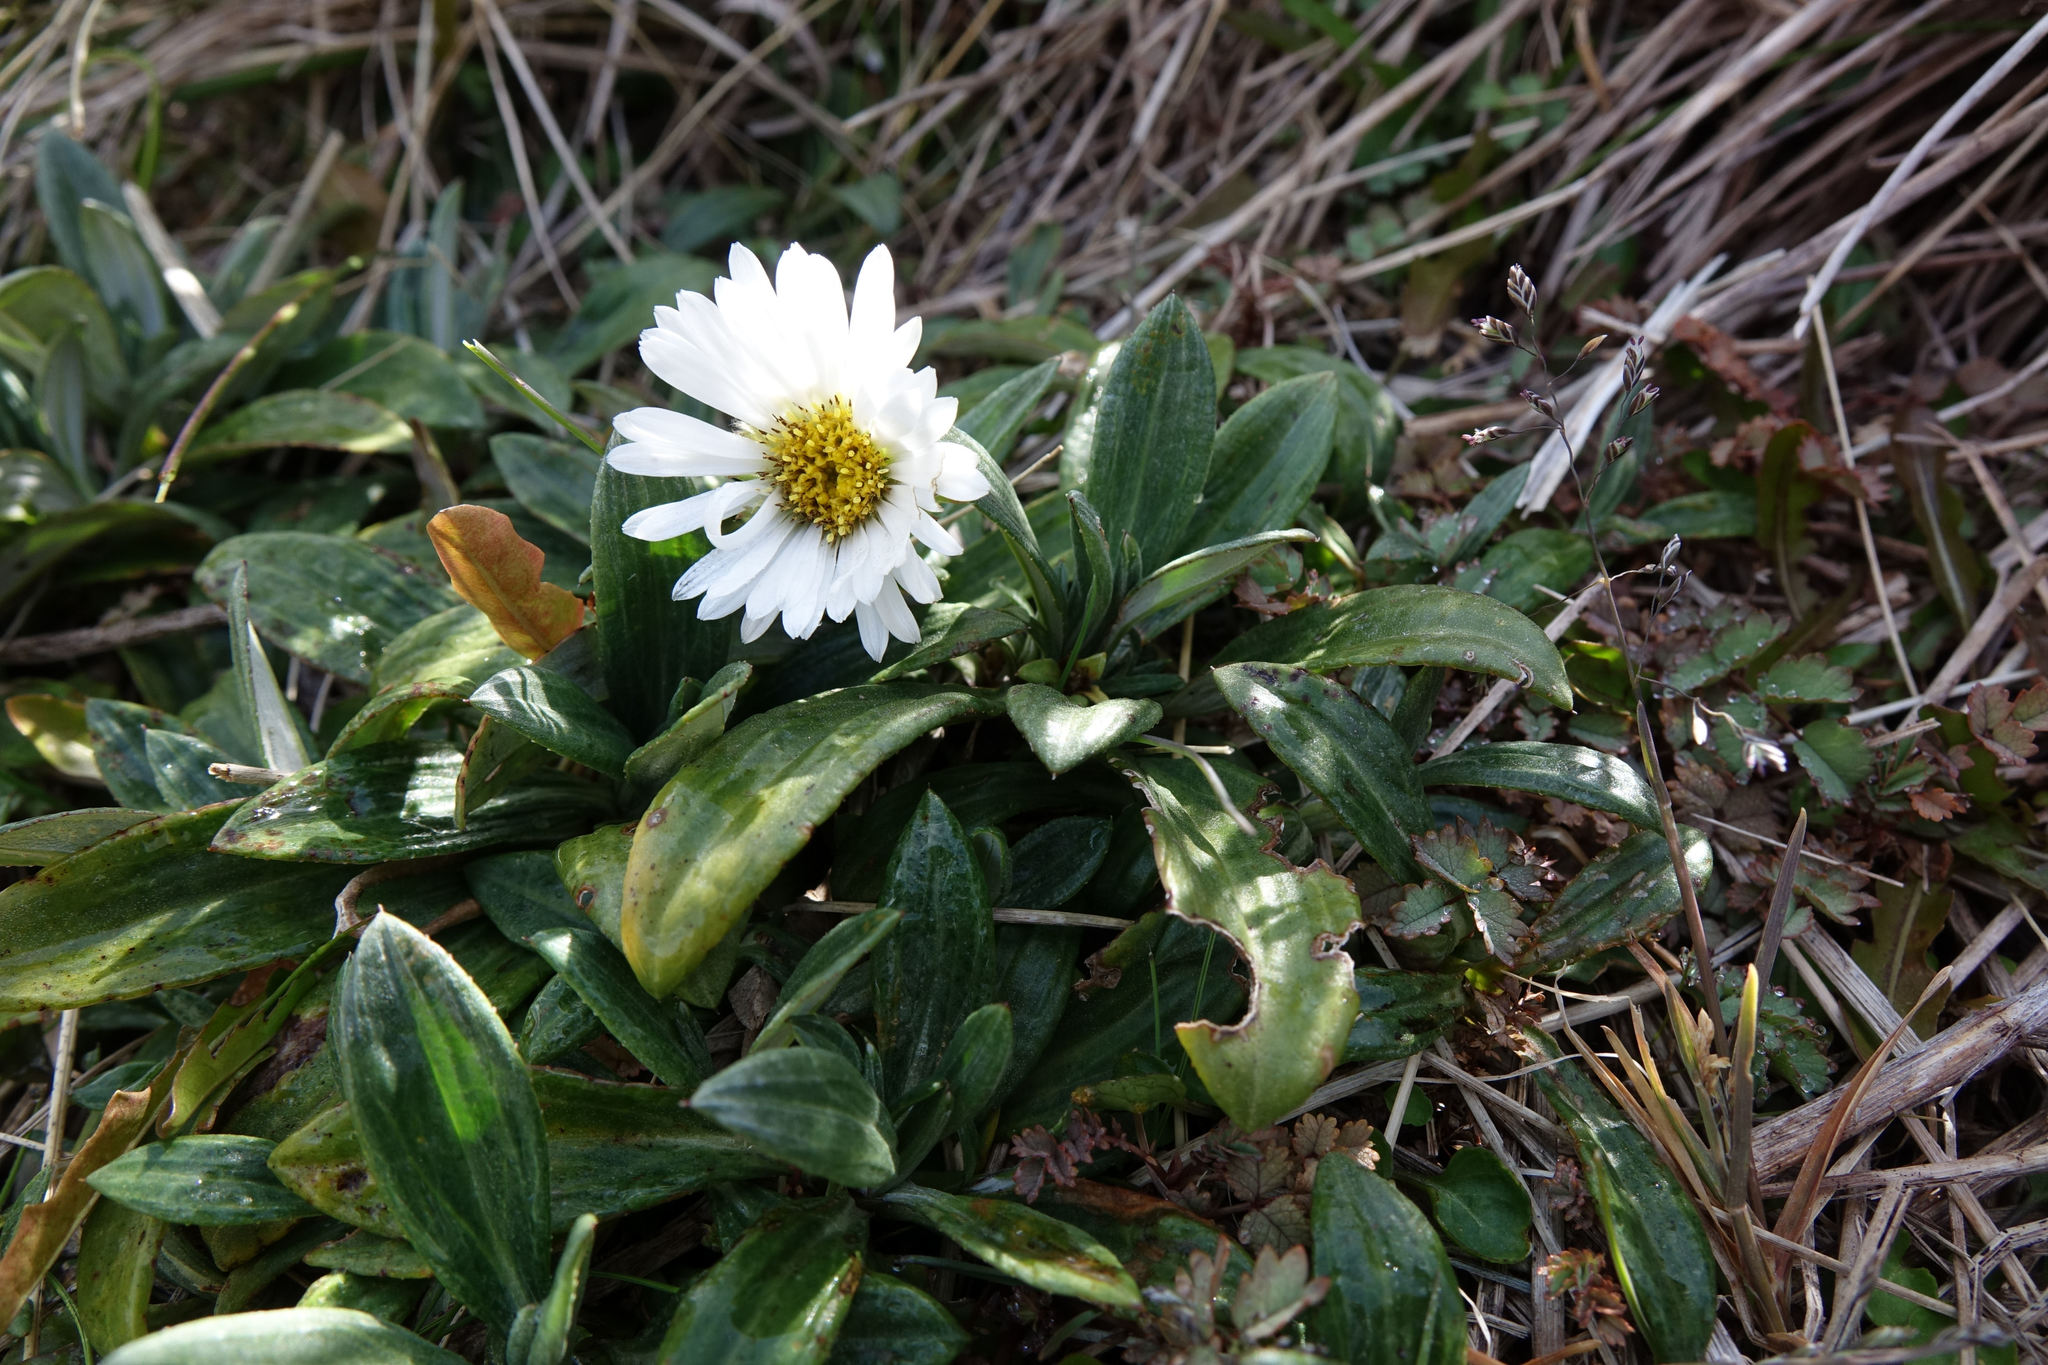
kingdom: Plantae
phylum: Tracheophyta
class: Magnoliopsida
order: Asterales
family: Asteraceae
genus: Celmisia
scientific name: Celmisia haastii
